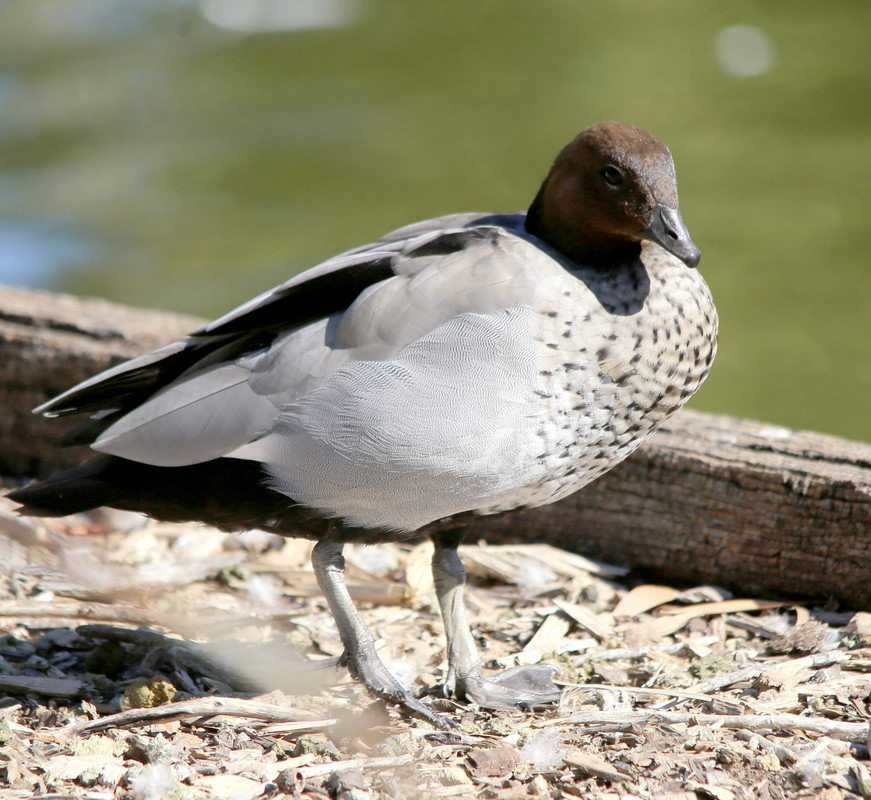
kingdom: Animalia
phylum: Chordata
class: Aves
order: Anseriformes
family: Anatidae
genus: Chenonetta
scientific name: Chenonetta jubata
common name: Maned duck
